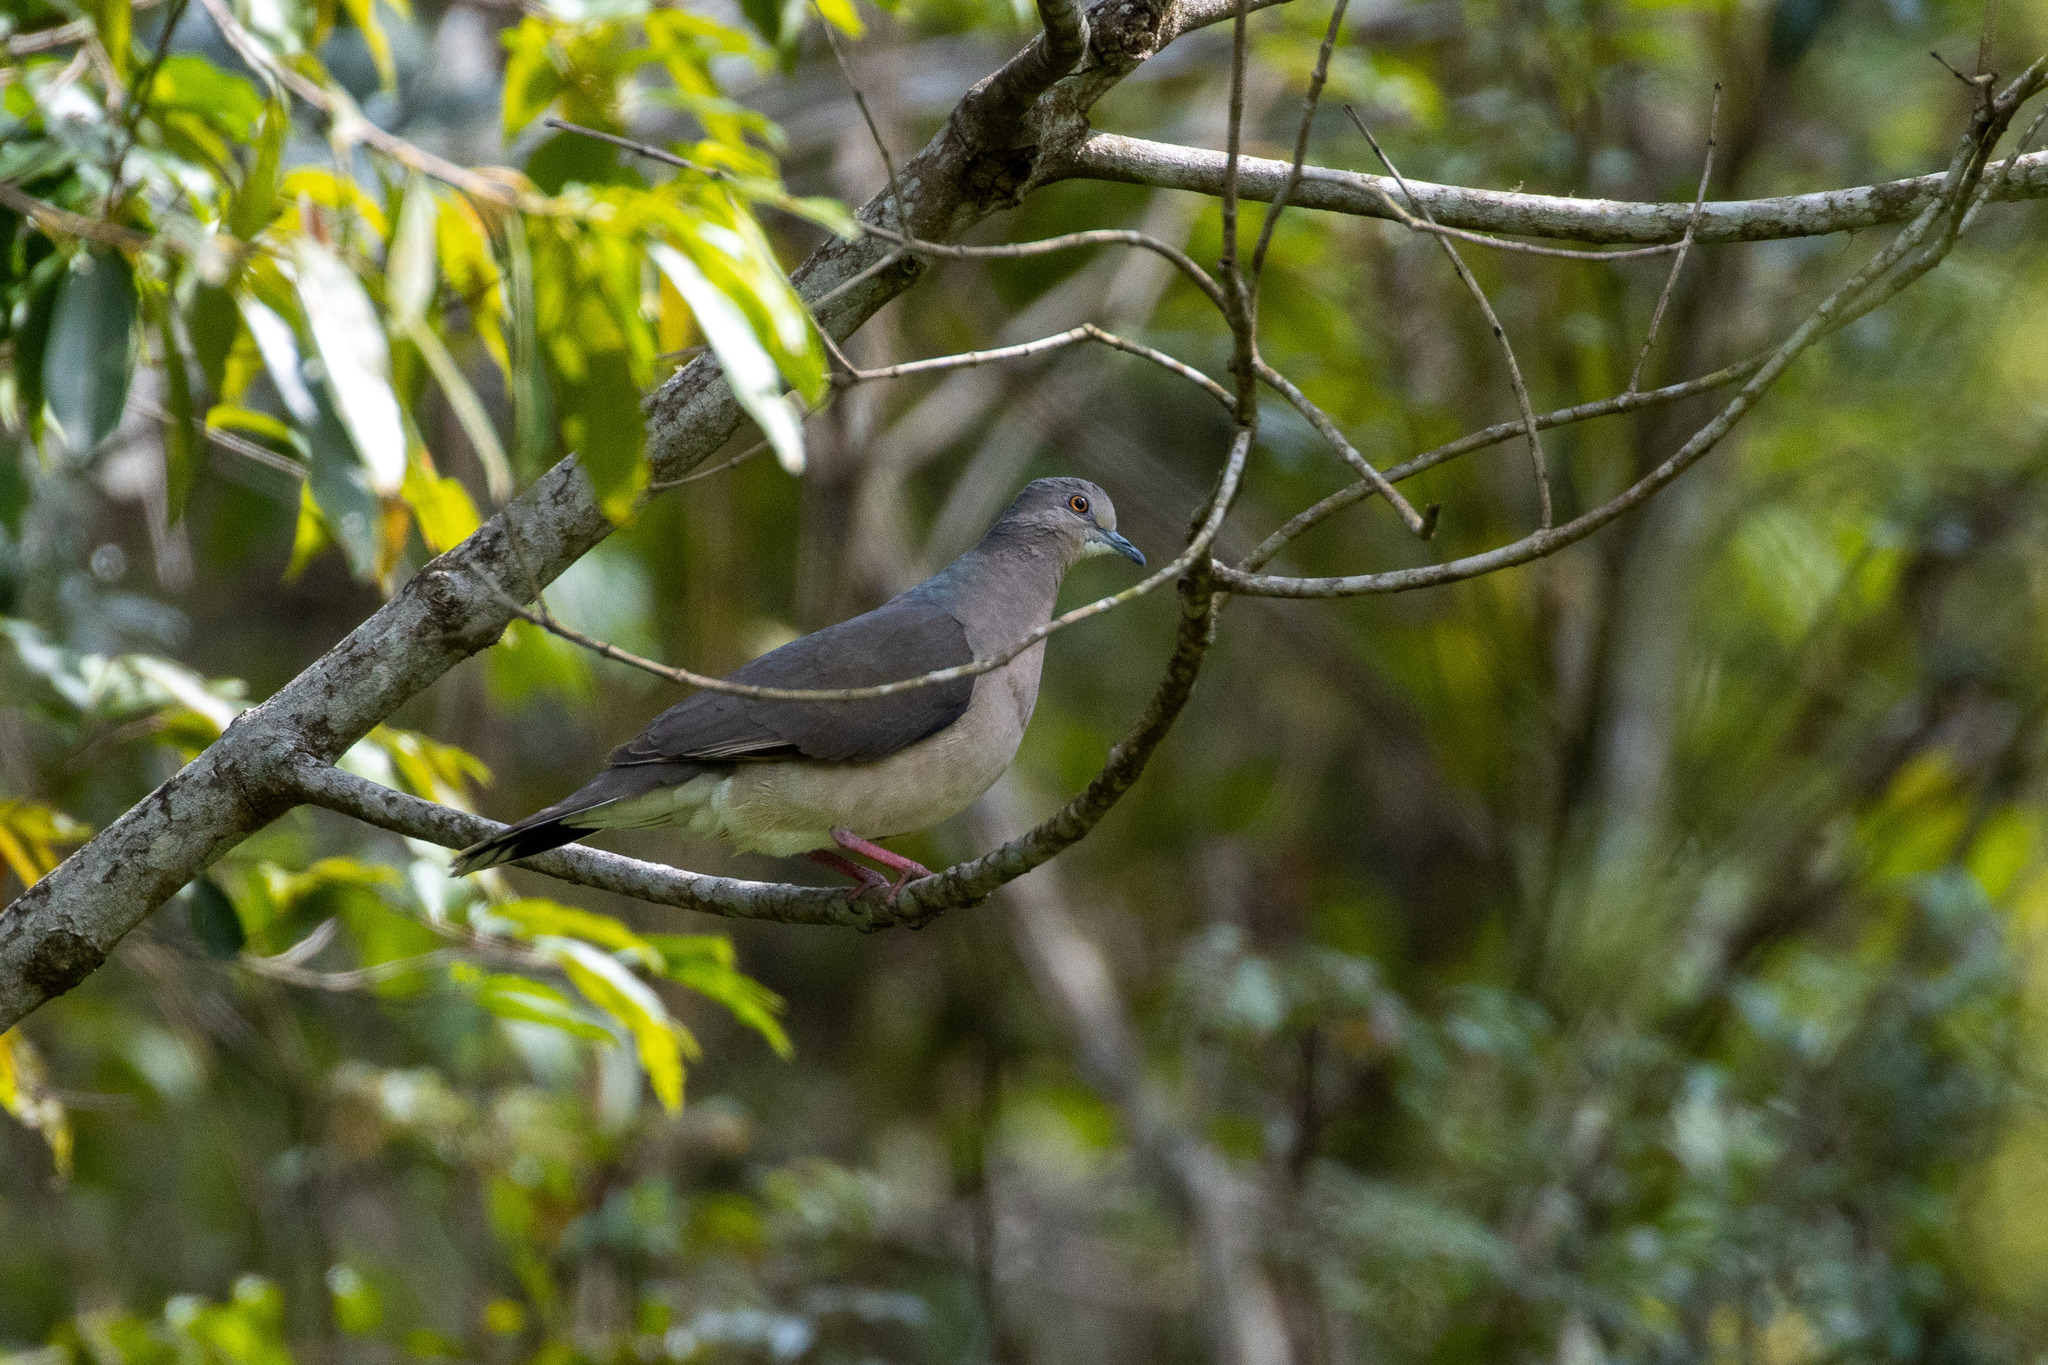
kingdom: Animalia
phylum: Chordata
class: Aves
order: Columbiformes
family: Columbidae
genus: Leptotila
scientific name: Leptotila verreauxi
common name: White-tipped dove
